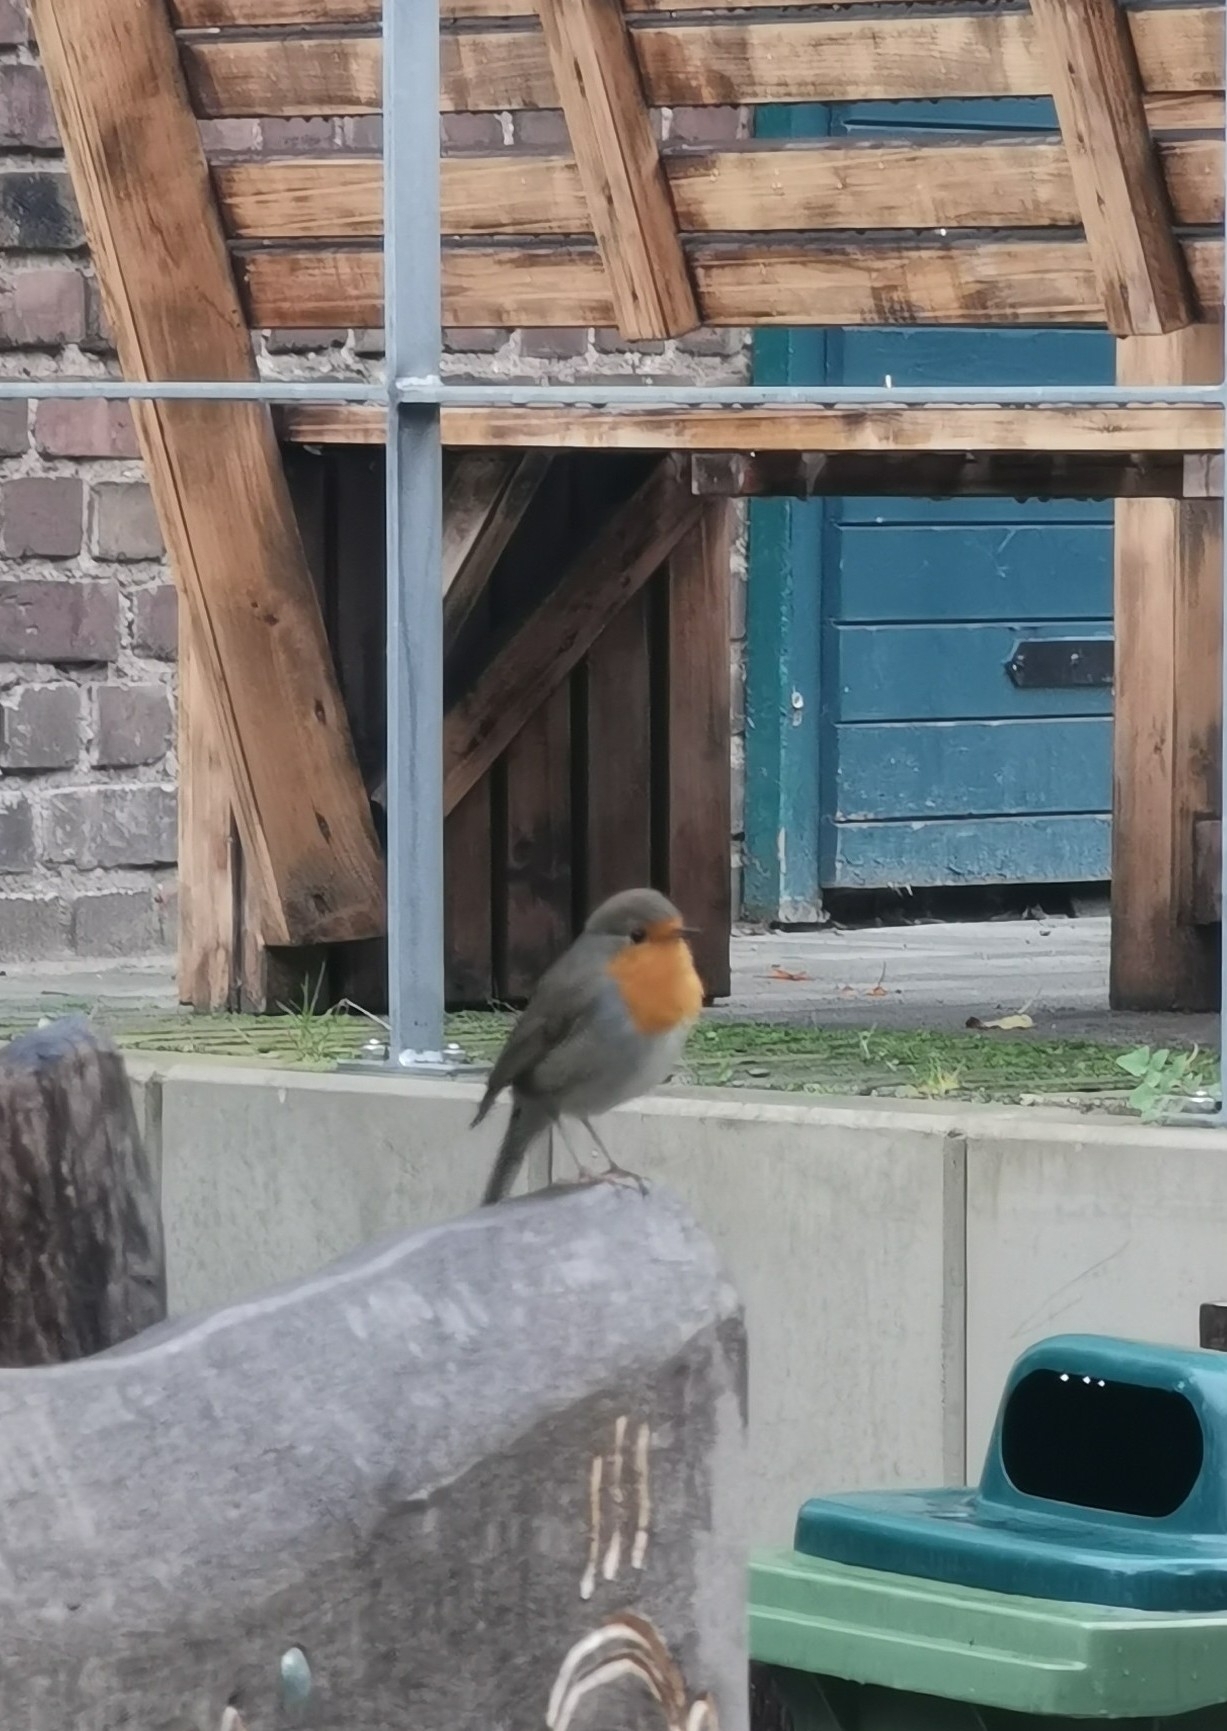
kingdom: Animalia
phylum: Chordata
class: Aves
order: Passeriformes
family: Muscicapidae
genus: Erithacus
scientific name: Erithacus rubecula
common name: European robin
